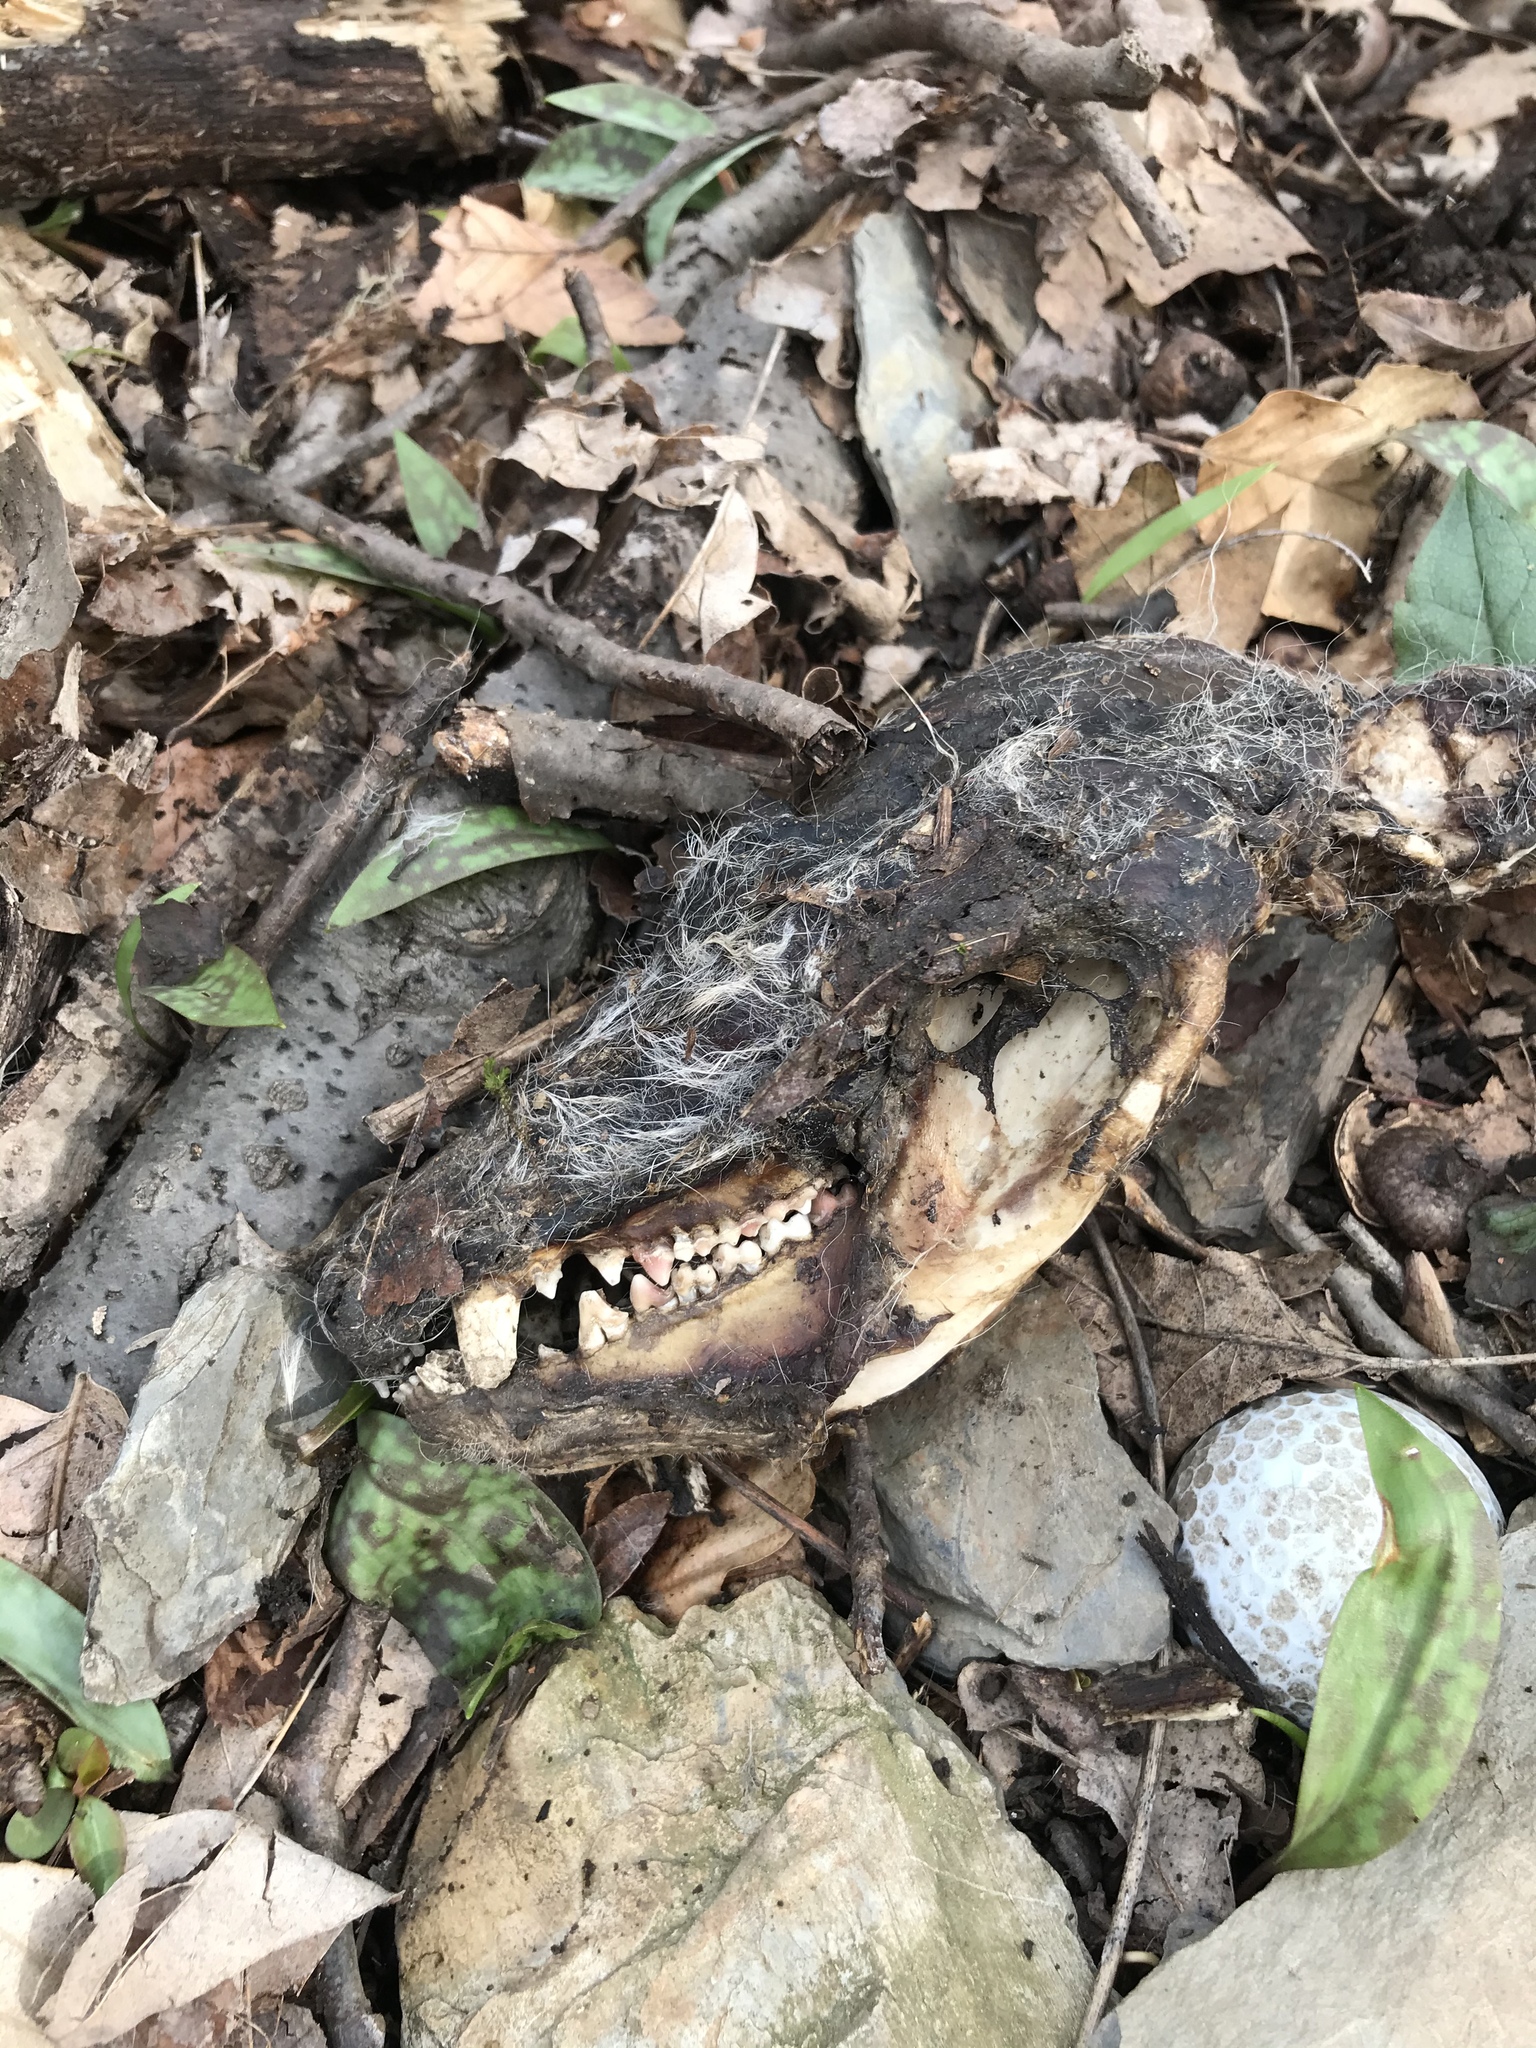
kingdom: Animalia
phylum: Chordata
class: Mammalia
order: Didelphimorphia
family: Didelphidae
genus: Didelphis
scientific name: Didelphis virginiana
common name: Virginia opossum
